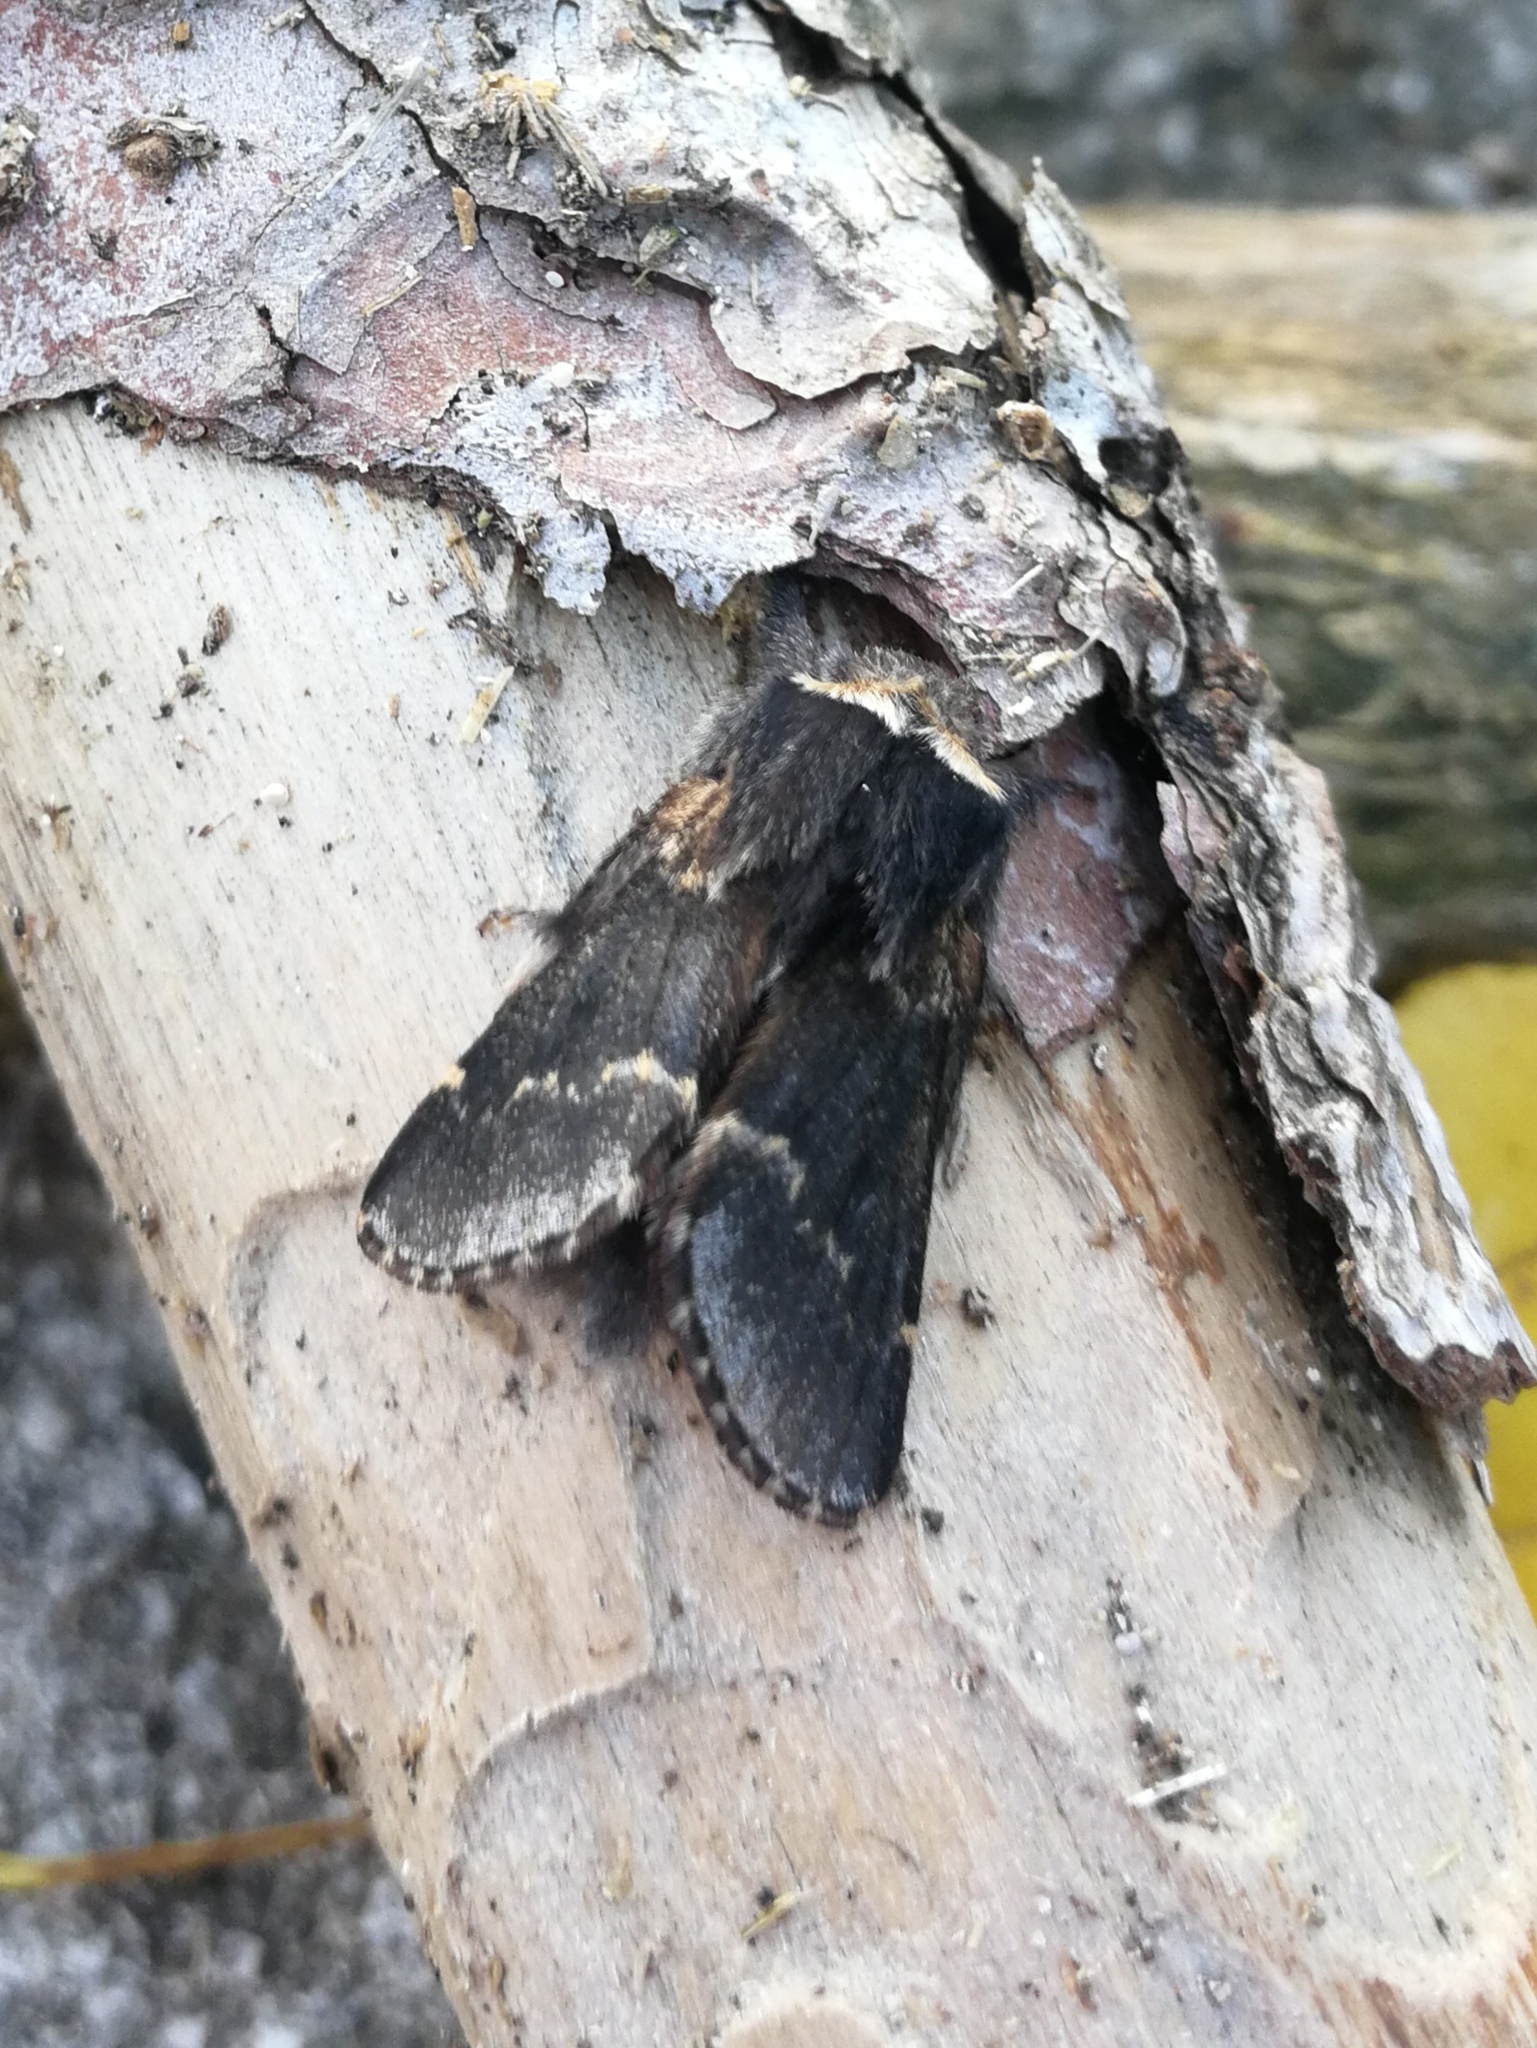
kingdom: Animalia
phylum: Arthropoda
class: Insecta
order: Lepidoptera
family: Lasiocampidae
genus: Poecilocampa
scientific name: Poecilocampa populi
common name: December moth
